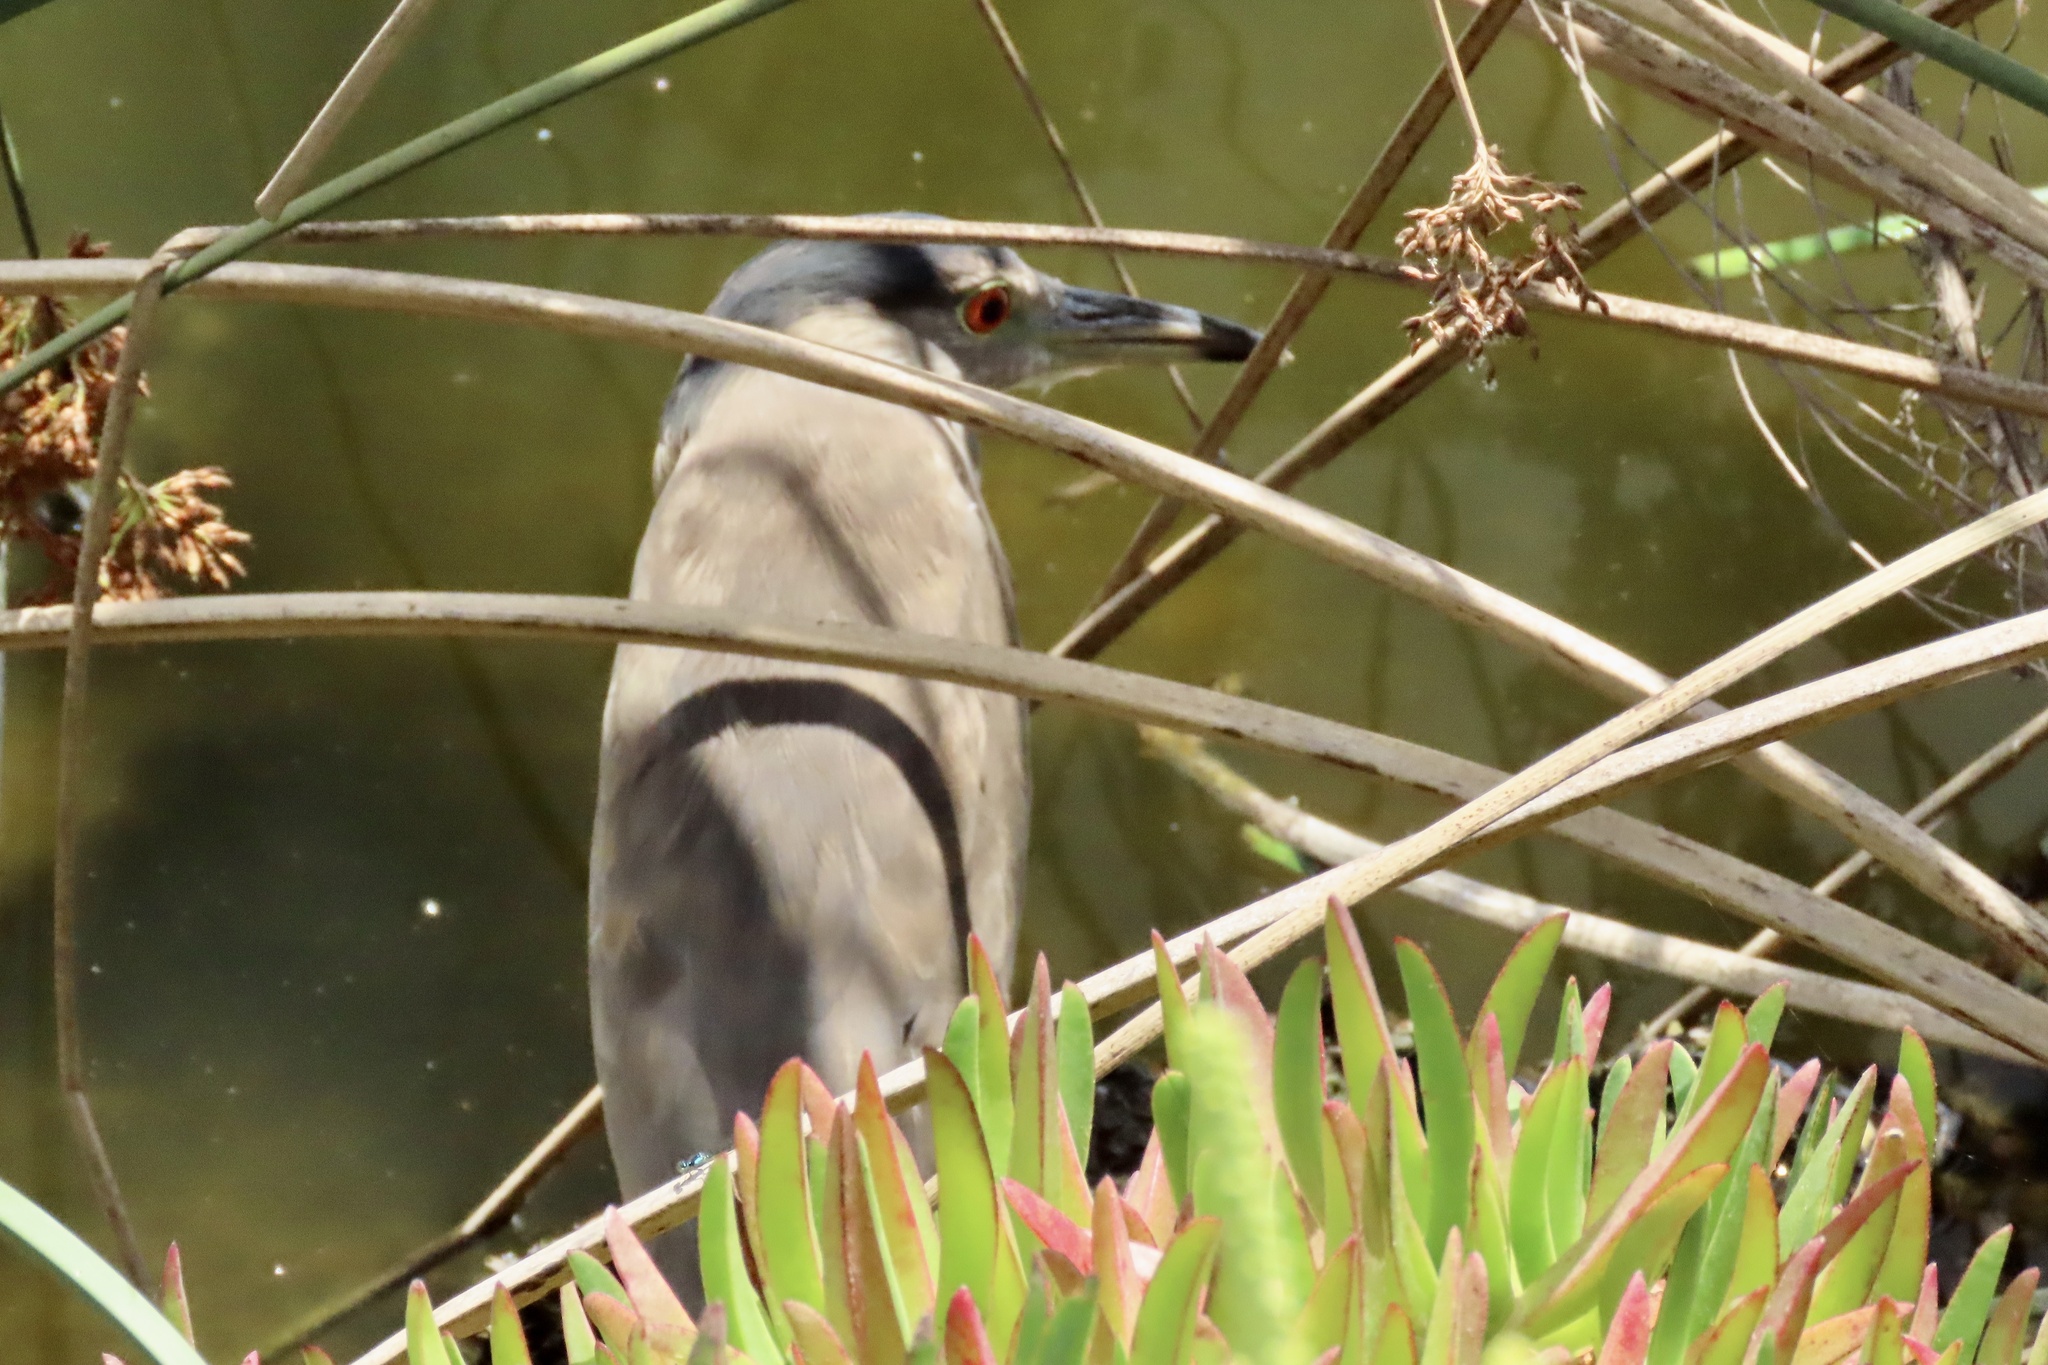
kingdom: Animalia
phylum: Chordata
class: Aves
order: Pelecaniformes
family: Ardeidae
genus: Nycticorax
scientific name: Nycticorax nycticorax
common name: Black-crowned night heron
